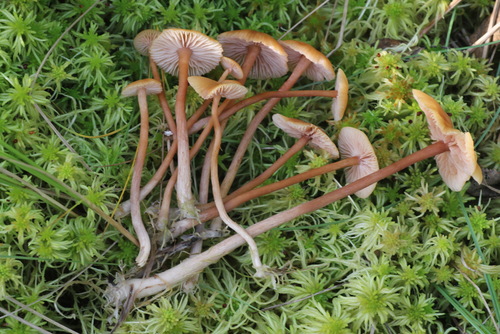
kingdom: Fungi
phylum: Basidiomycota
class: Agaricomycetes
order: Agaricales
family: Hydnangiaceae
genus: Laccaria
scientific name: Laccaria laccata
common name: Deceiver
